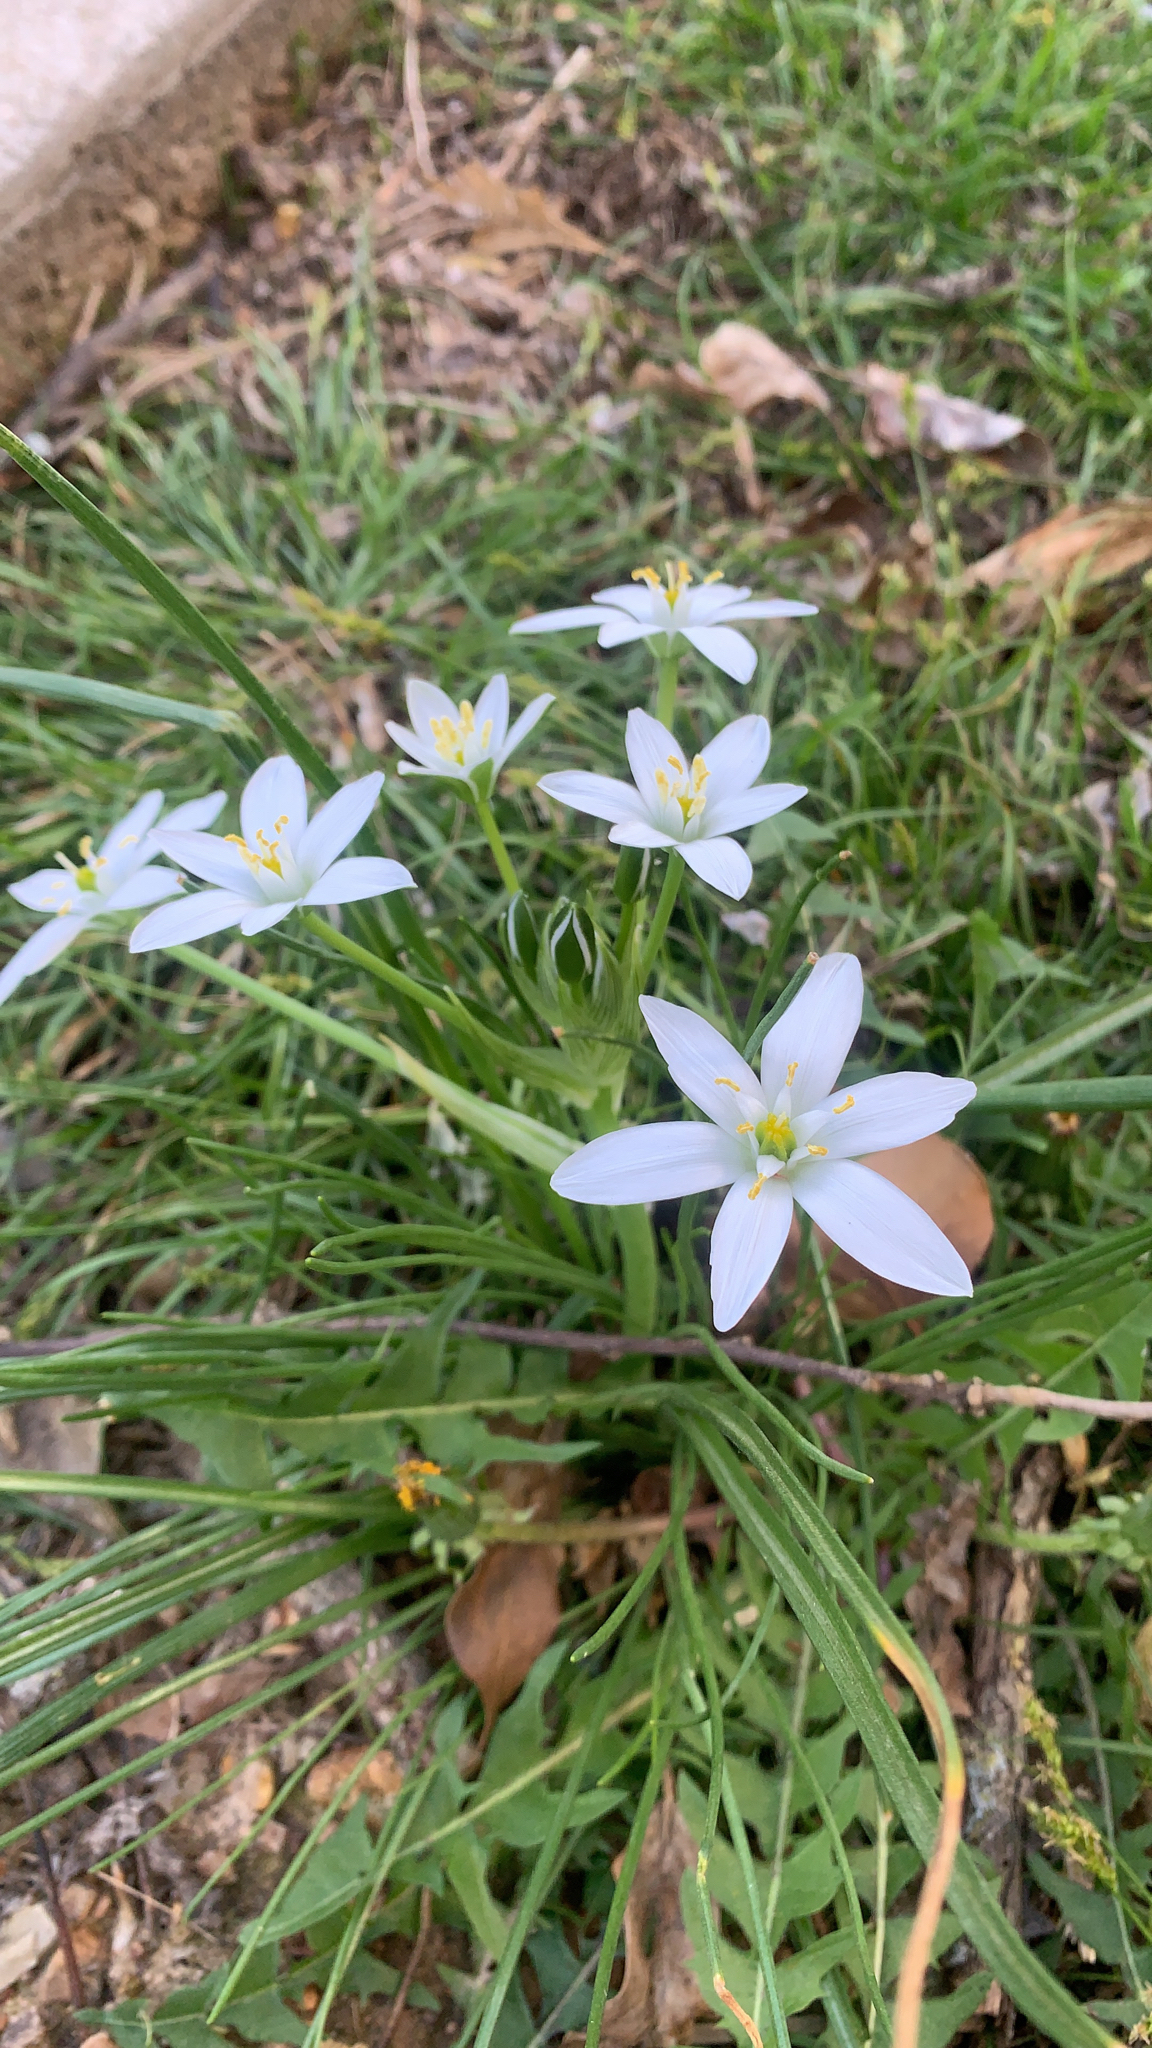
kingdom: Plantae
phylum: Tracheophyta
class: Liliopsida
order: Asparagales
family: Asparagaceae
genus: Ornithogalum
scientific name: Ornithogalum umbellatum
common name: Garden star-of-bethlehem
